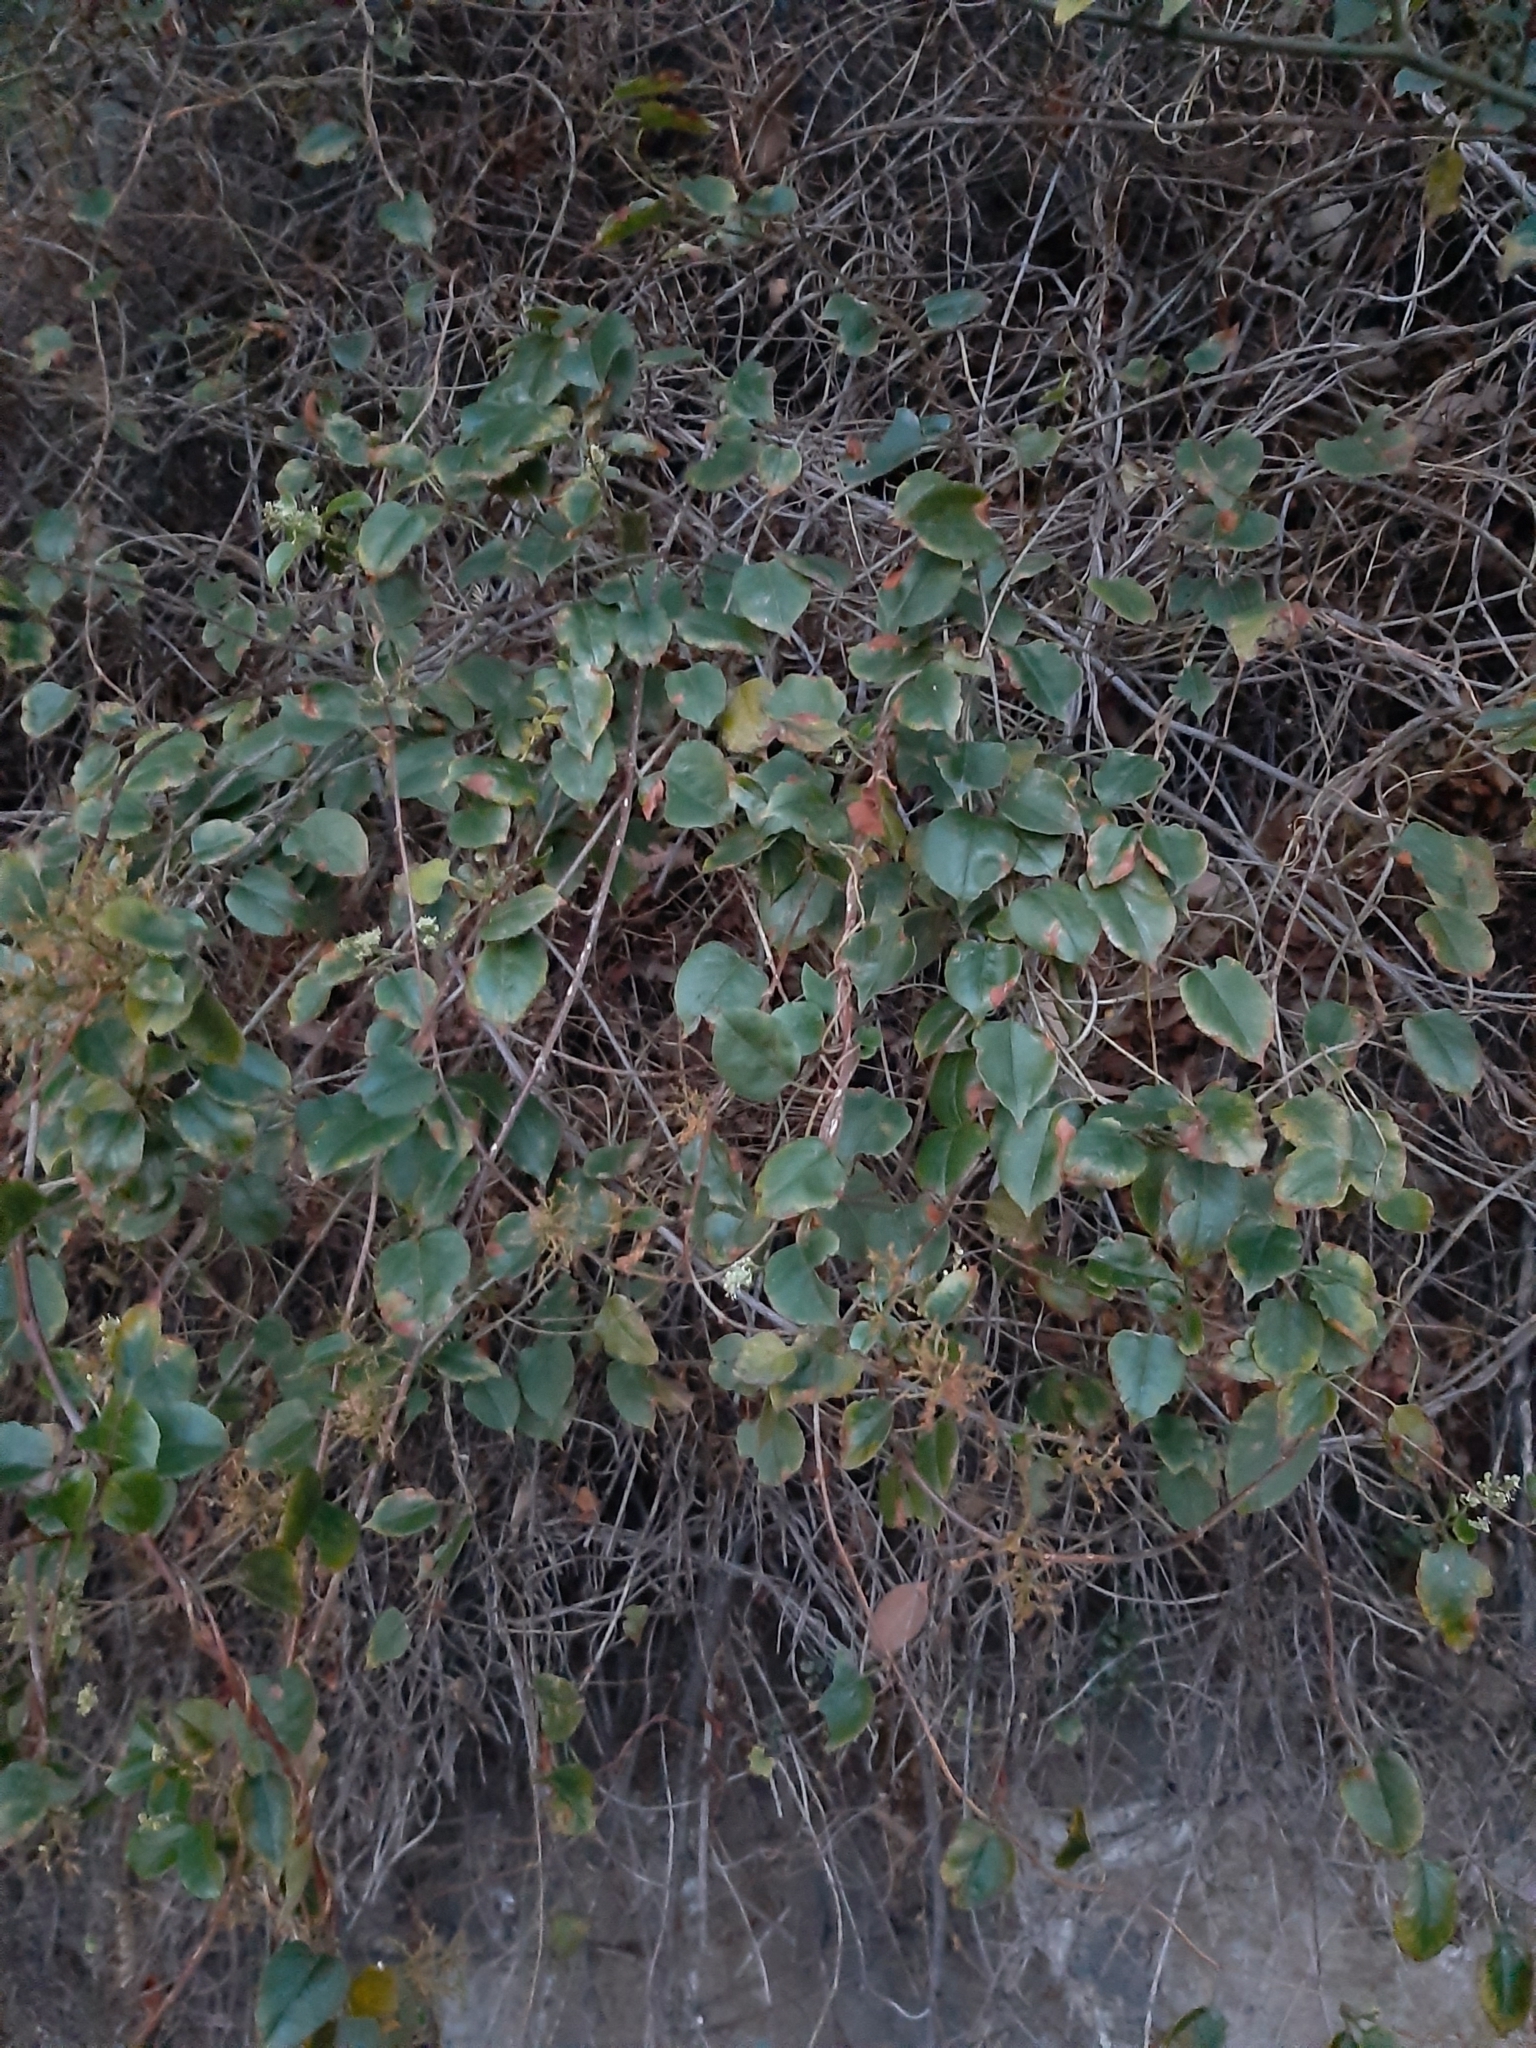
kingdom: Plantae
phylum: Tracheophyta
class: Magnoliopsida
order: Caryophyllales
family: Polygonaceae
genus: Muehlenbeckia
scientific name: Muehlenbeckia australis
